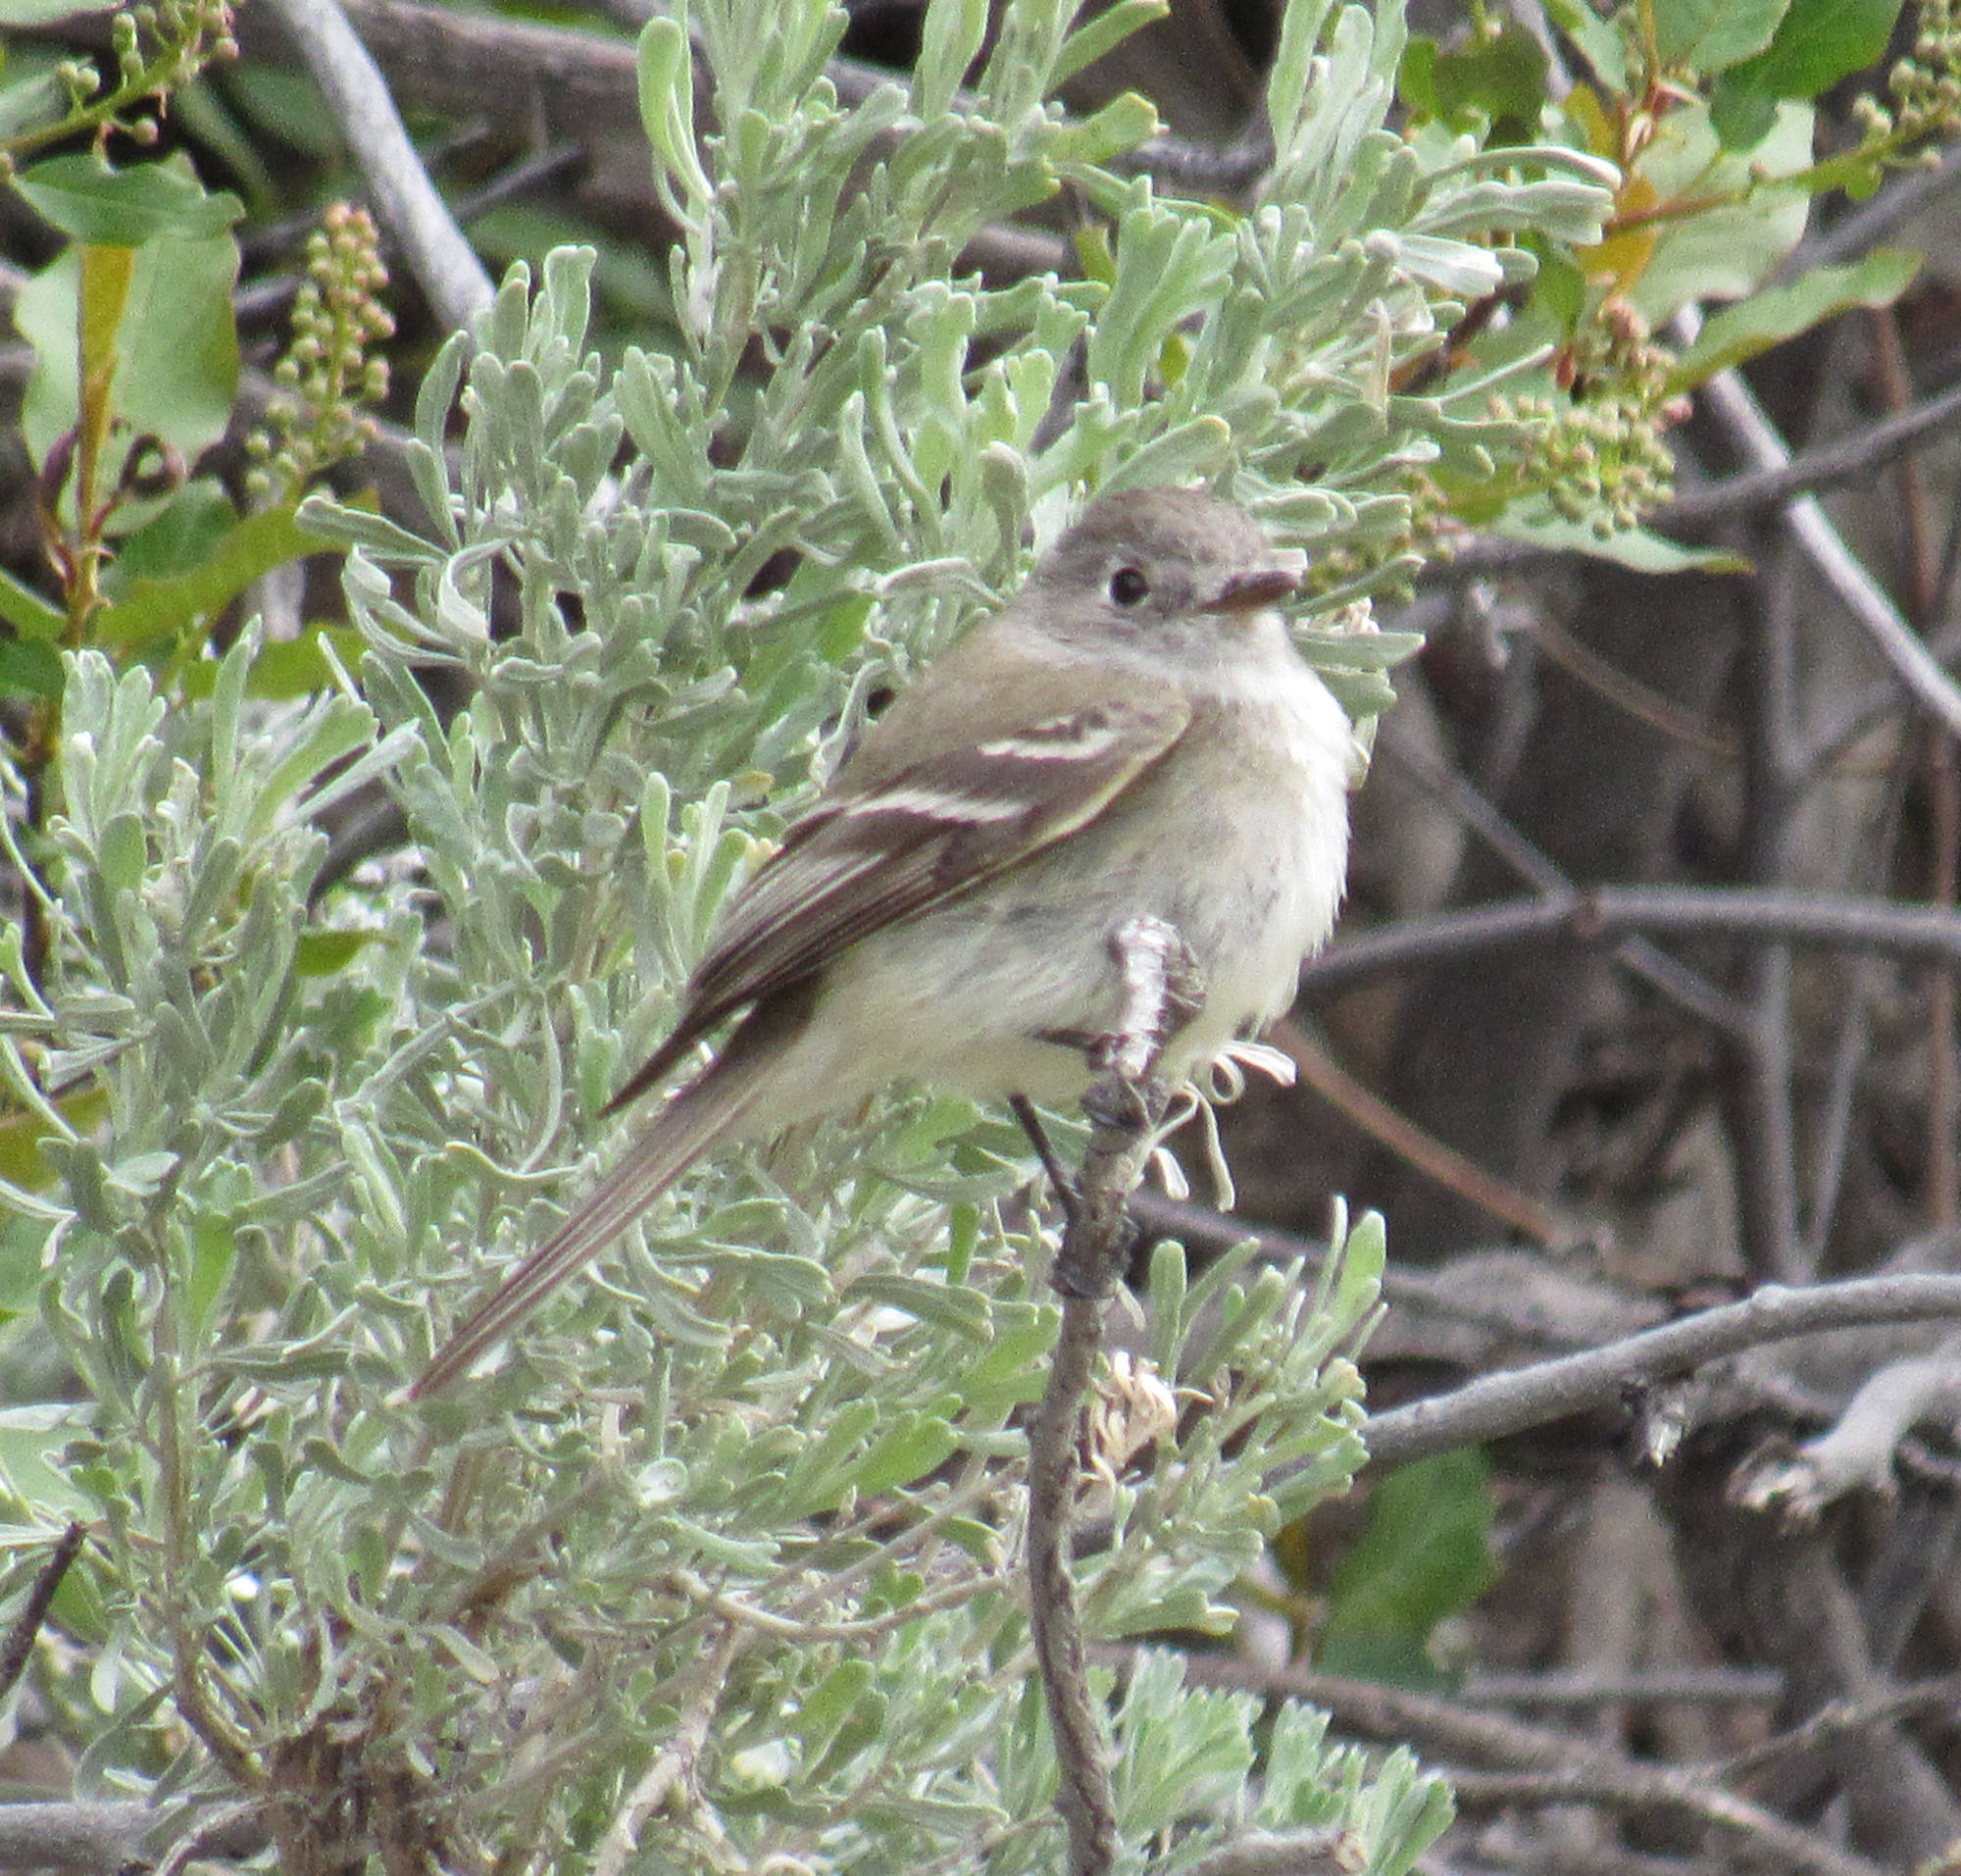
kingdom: Animalia
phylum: Chordata
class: Aves
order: Passeriformes
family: Tyrannidae
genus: Empidonax
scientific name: Empidonax oberholseri
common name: Dusky flycatcher
